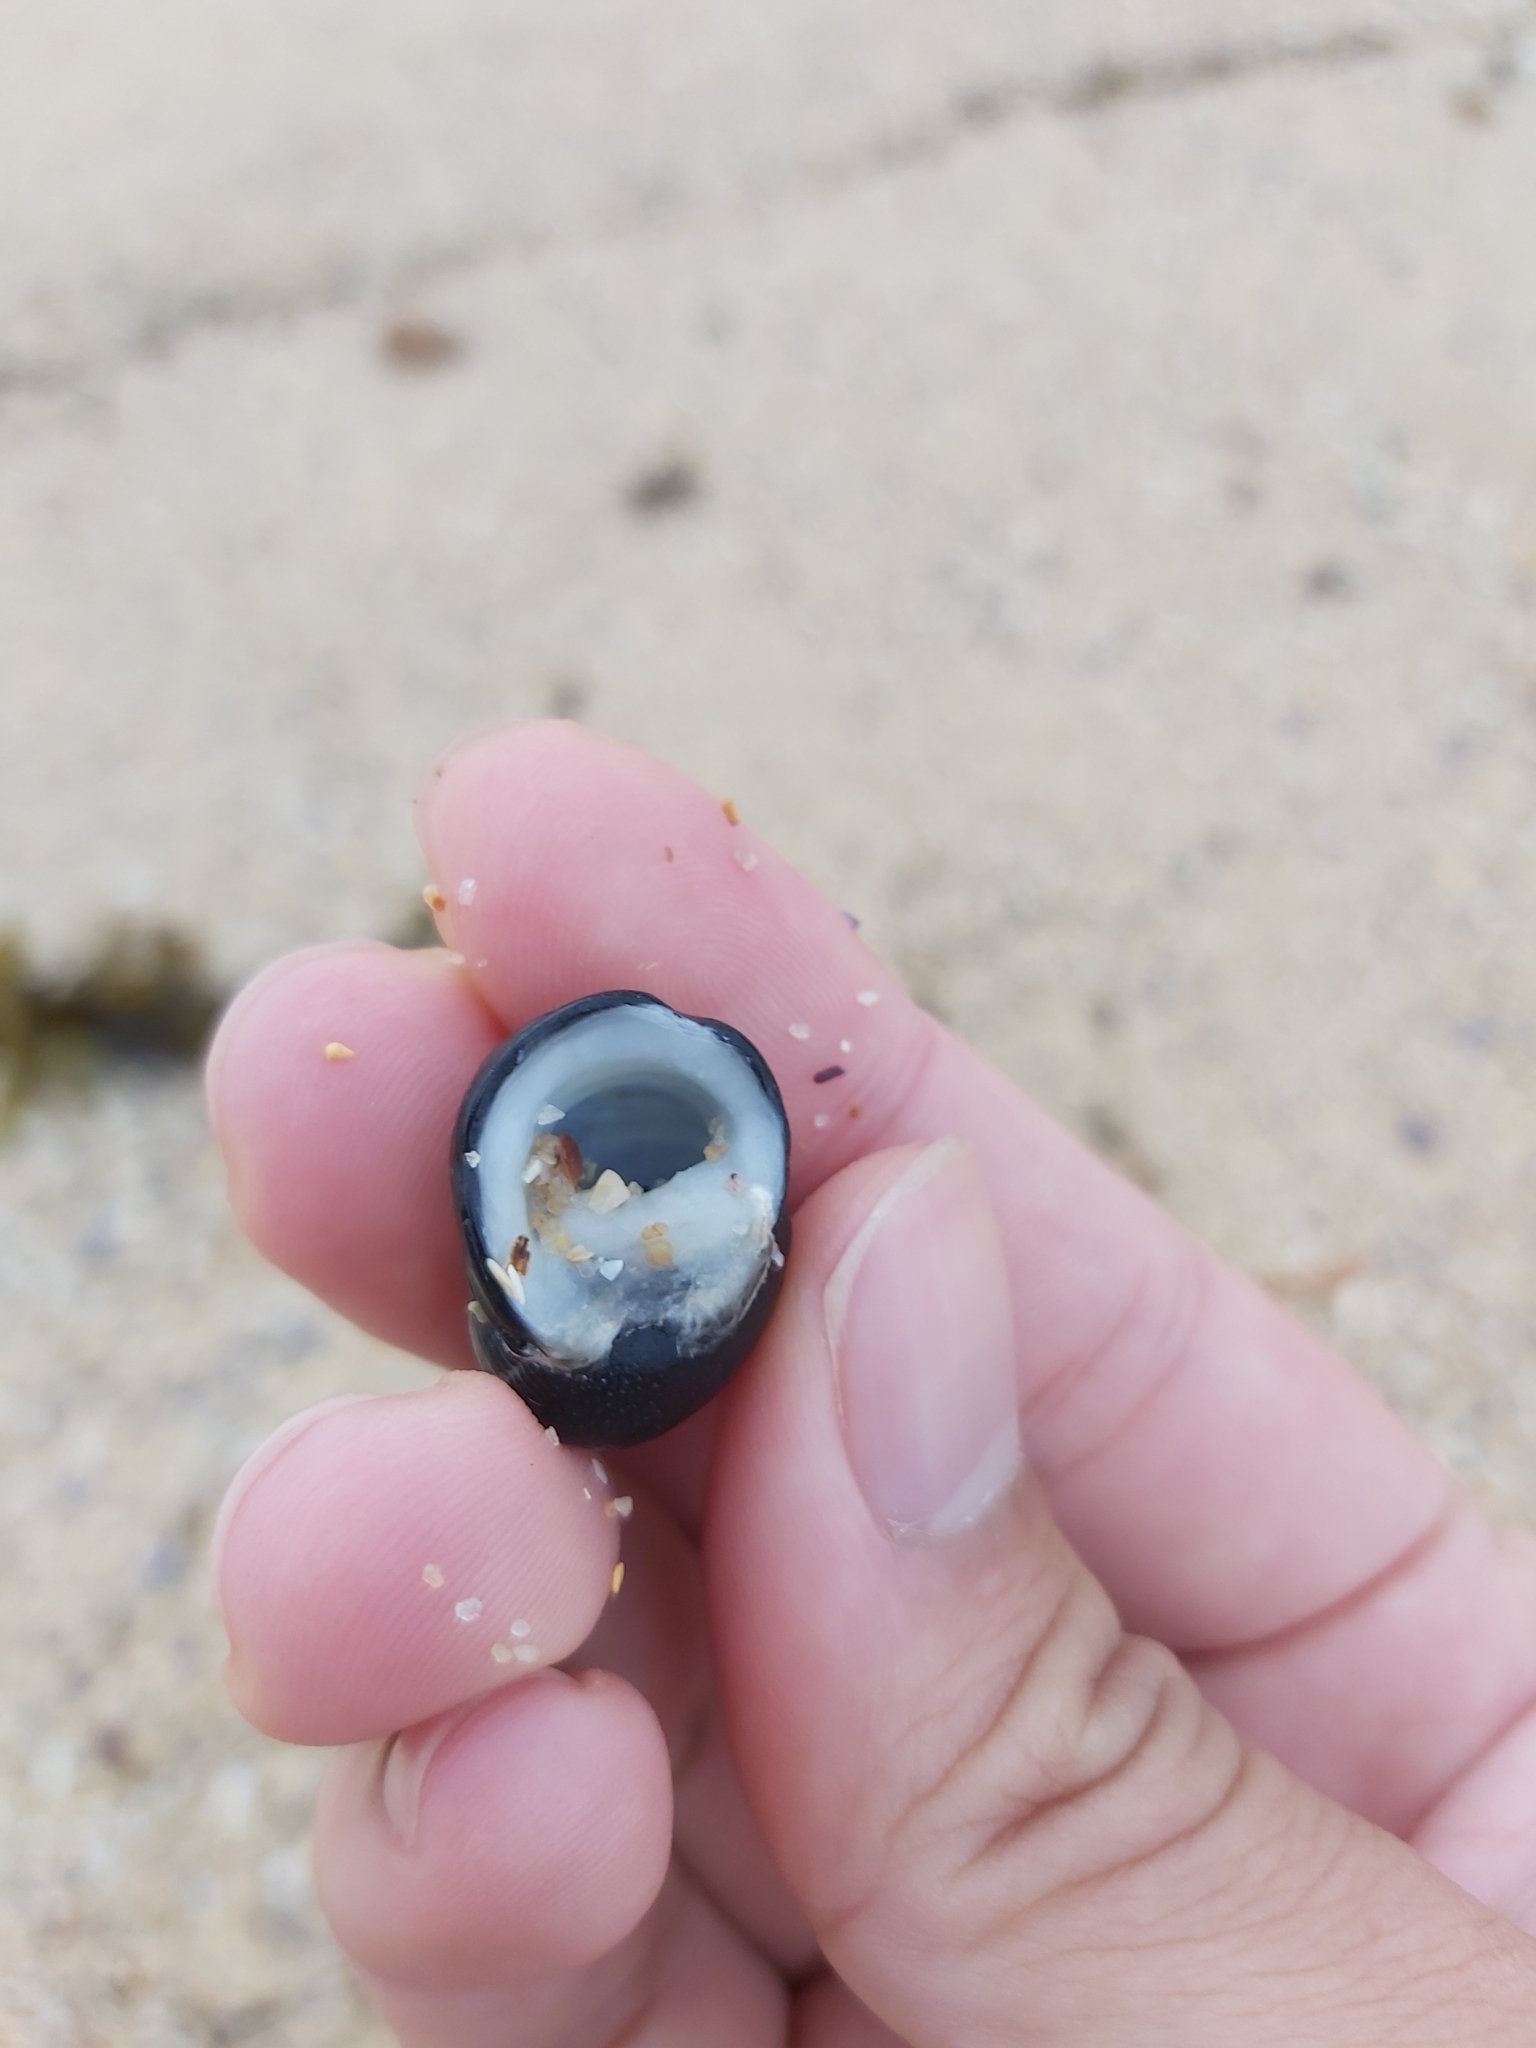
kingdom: Animalia
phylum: Mollusca
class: Gastropoda
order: Cycloneritida
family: Neritidae
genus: Nerita
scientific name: Nerita melanotragus
